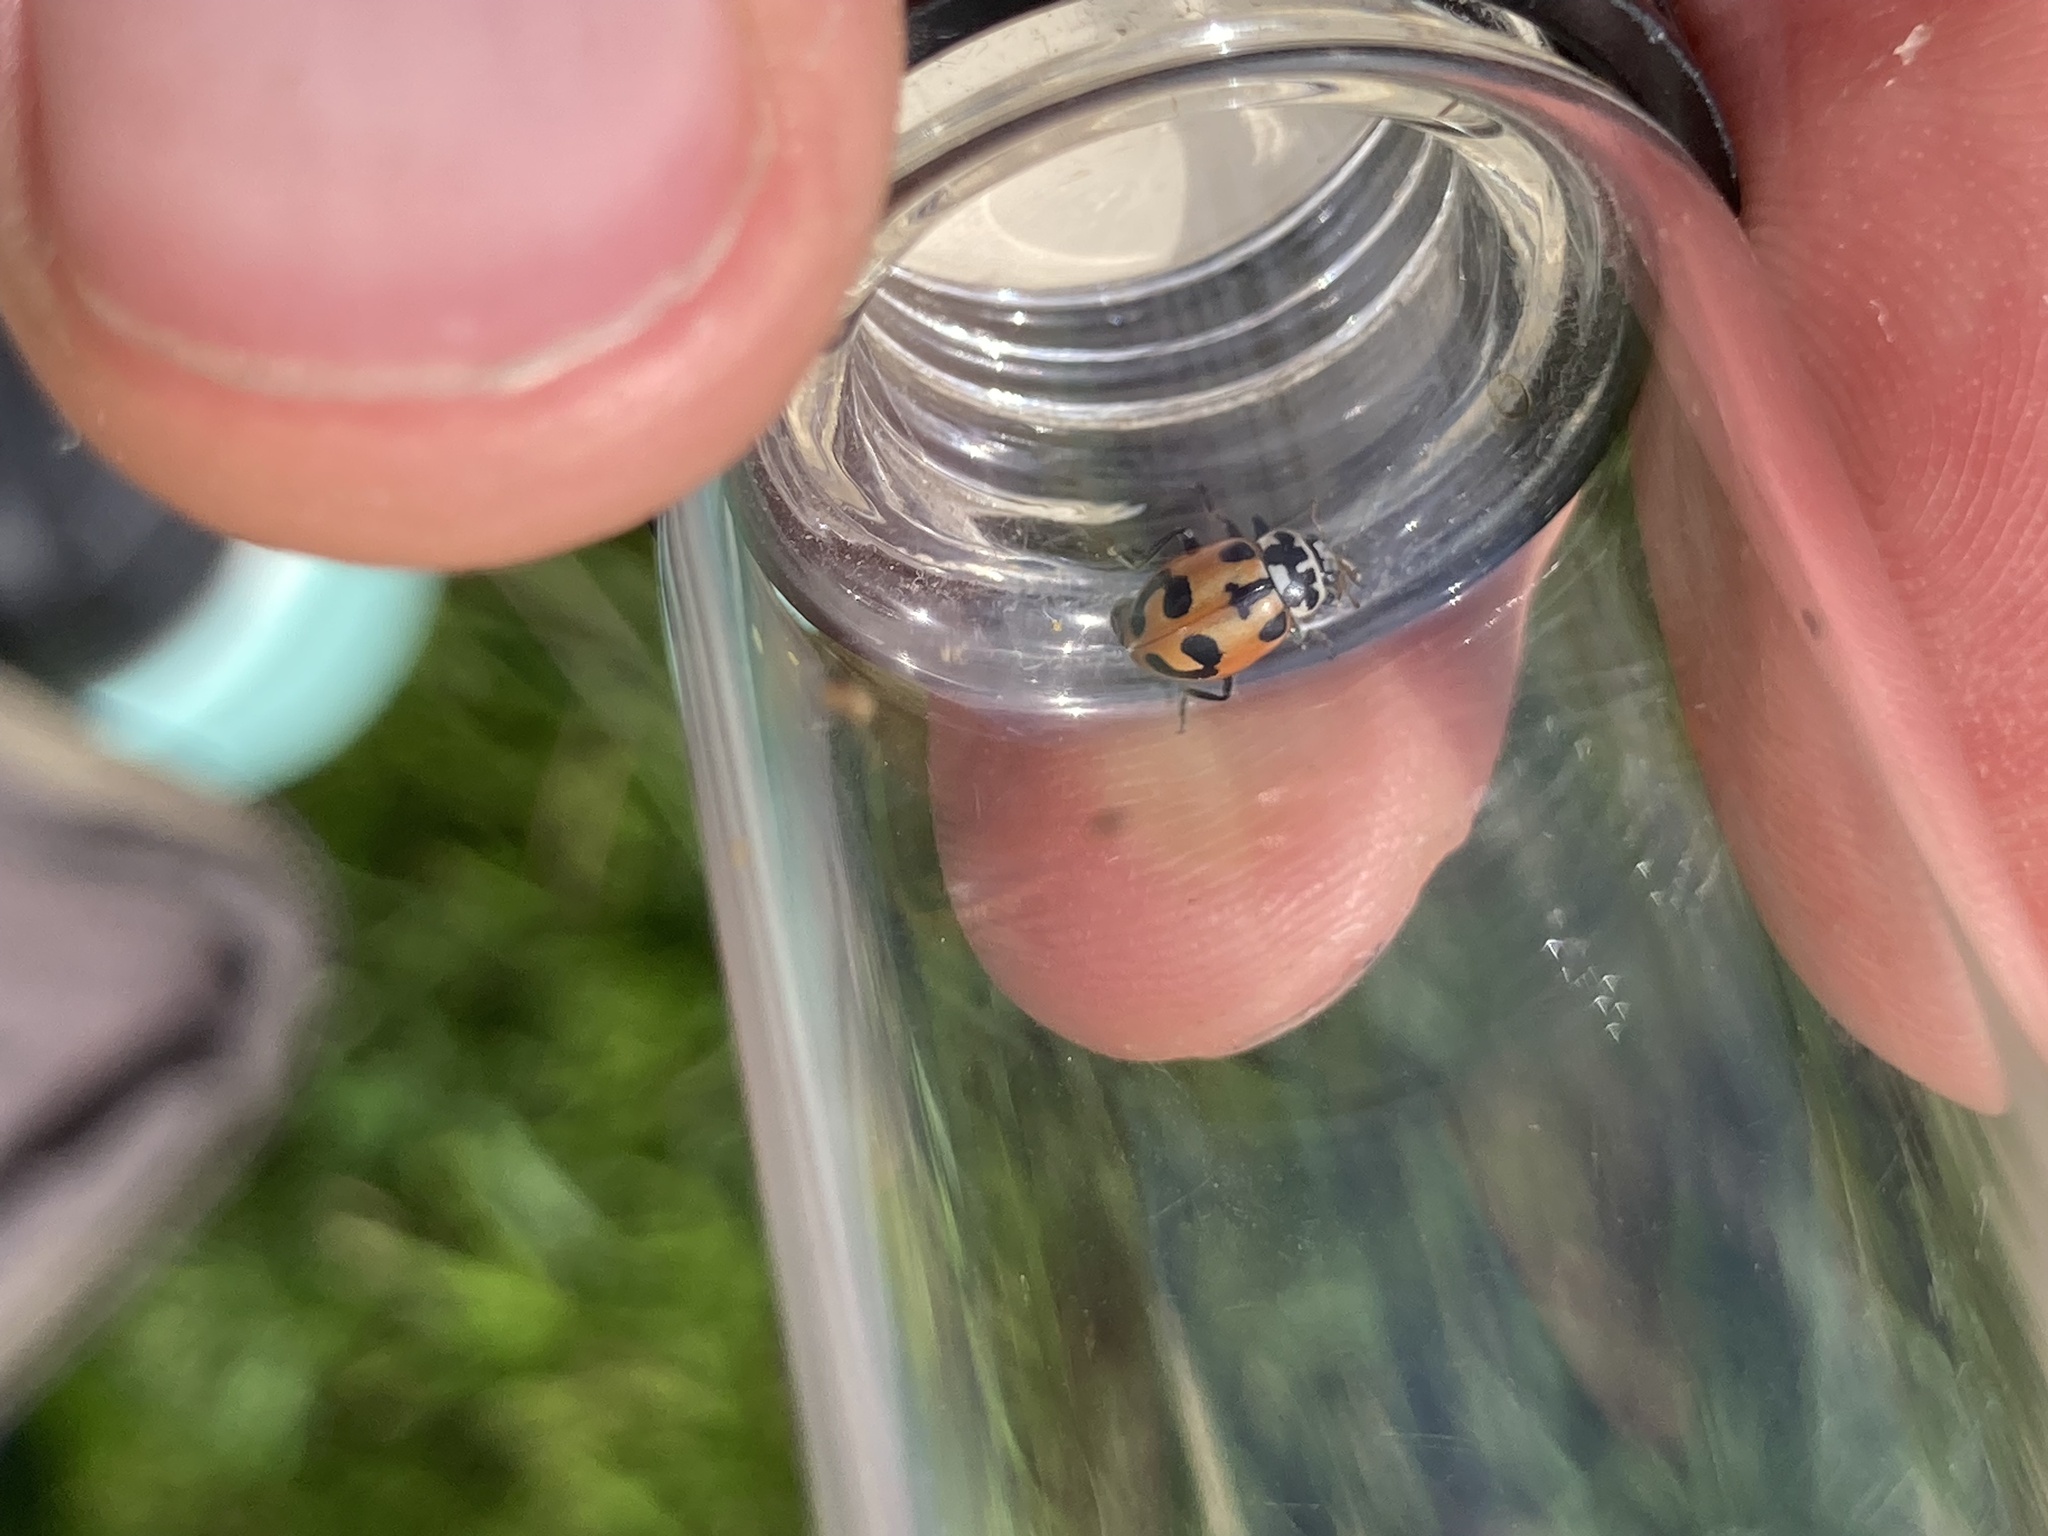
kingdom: Animalia
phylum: Arthropoda
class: Insecta
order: Coleoptera
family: Coccinellidae
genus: Hippodamia
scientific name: Hippodamia parenthesis
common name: Parenthesis lady beetle
